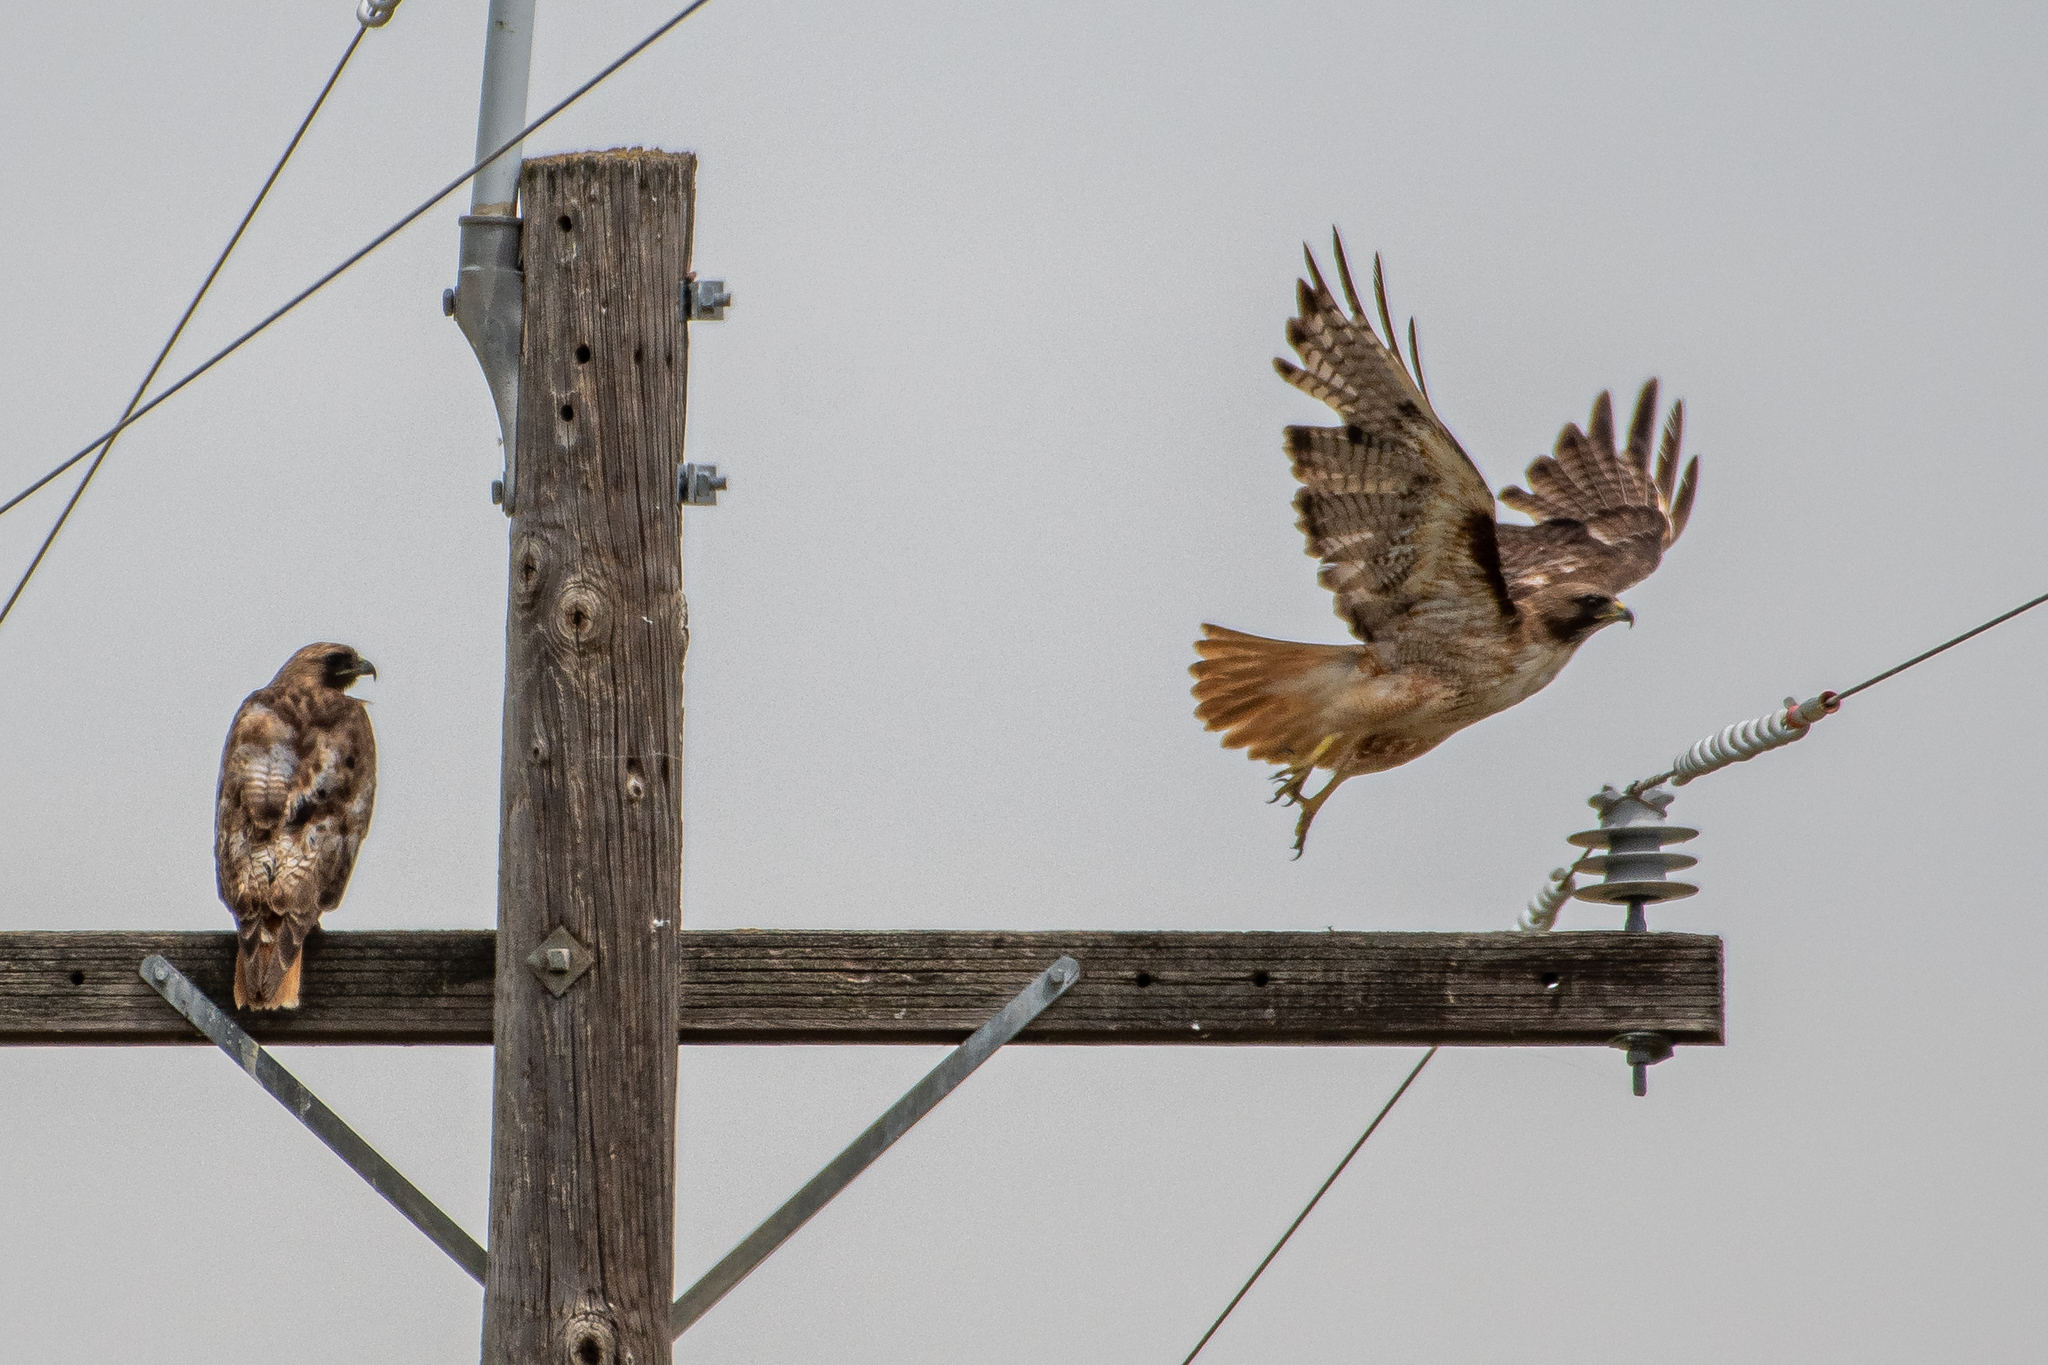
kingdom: Animalia
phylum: Chordata
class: Aves
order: Accipitriformes
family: Accipitridae
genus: Buteo
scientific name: Buteo jamaicensis
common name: Red-tailed hawk
